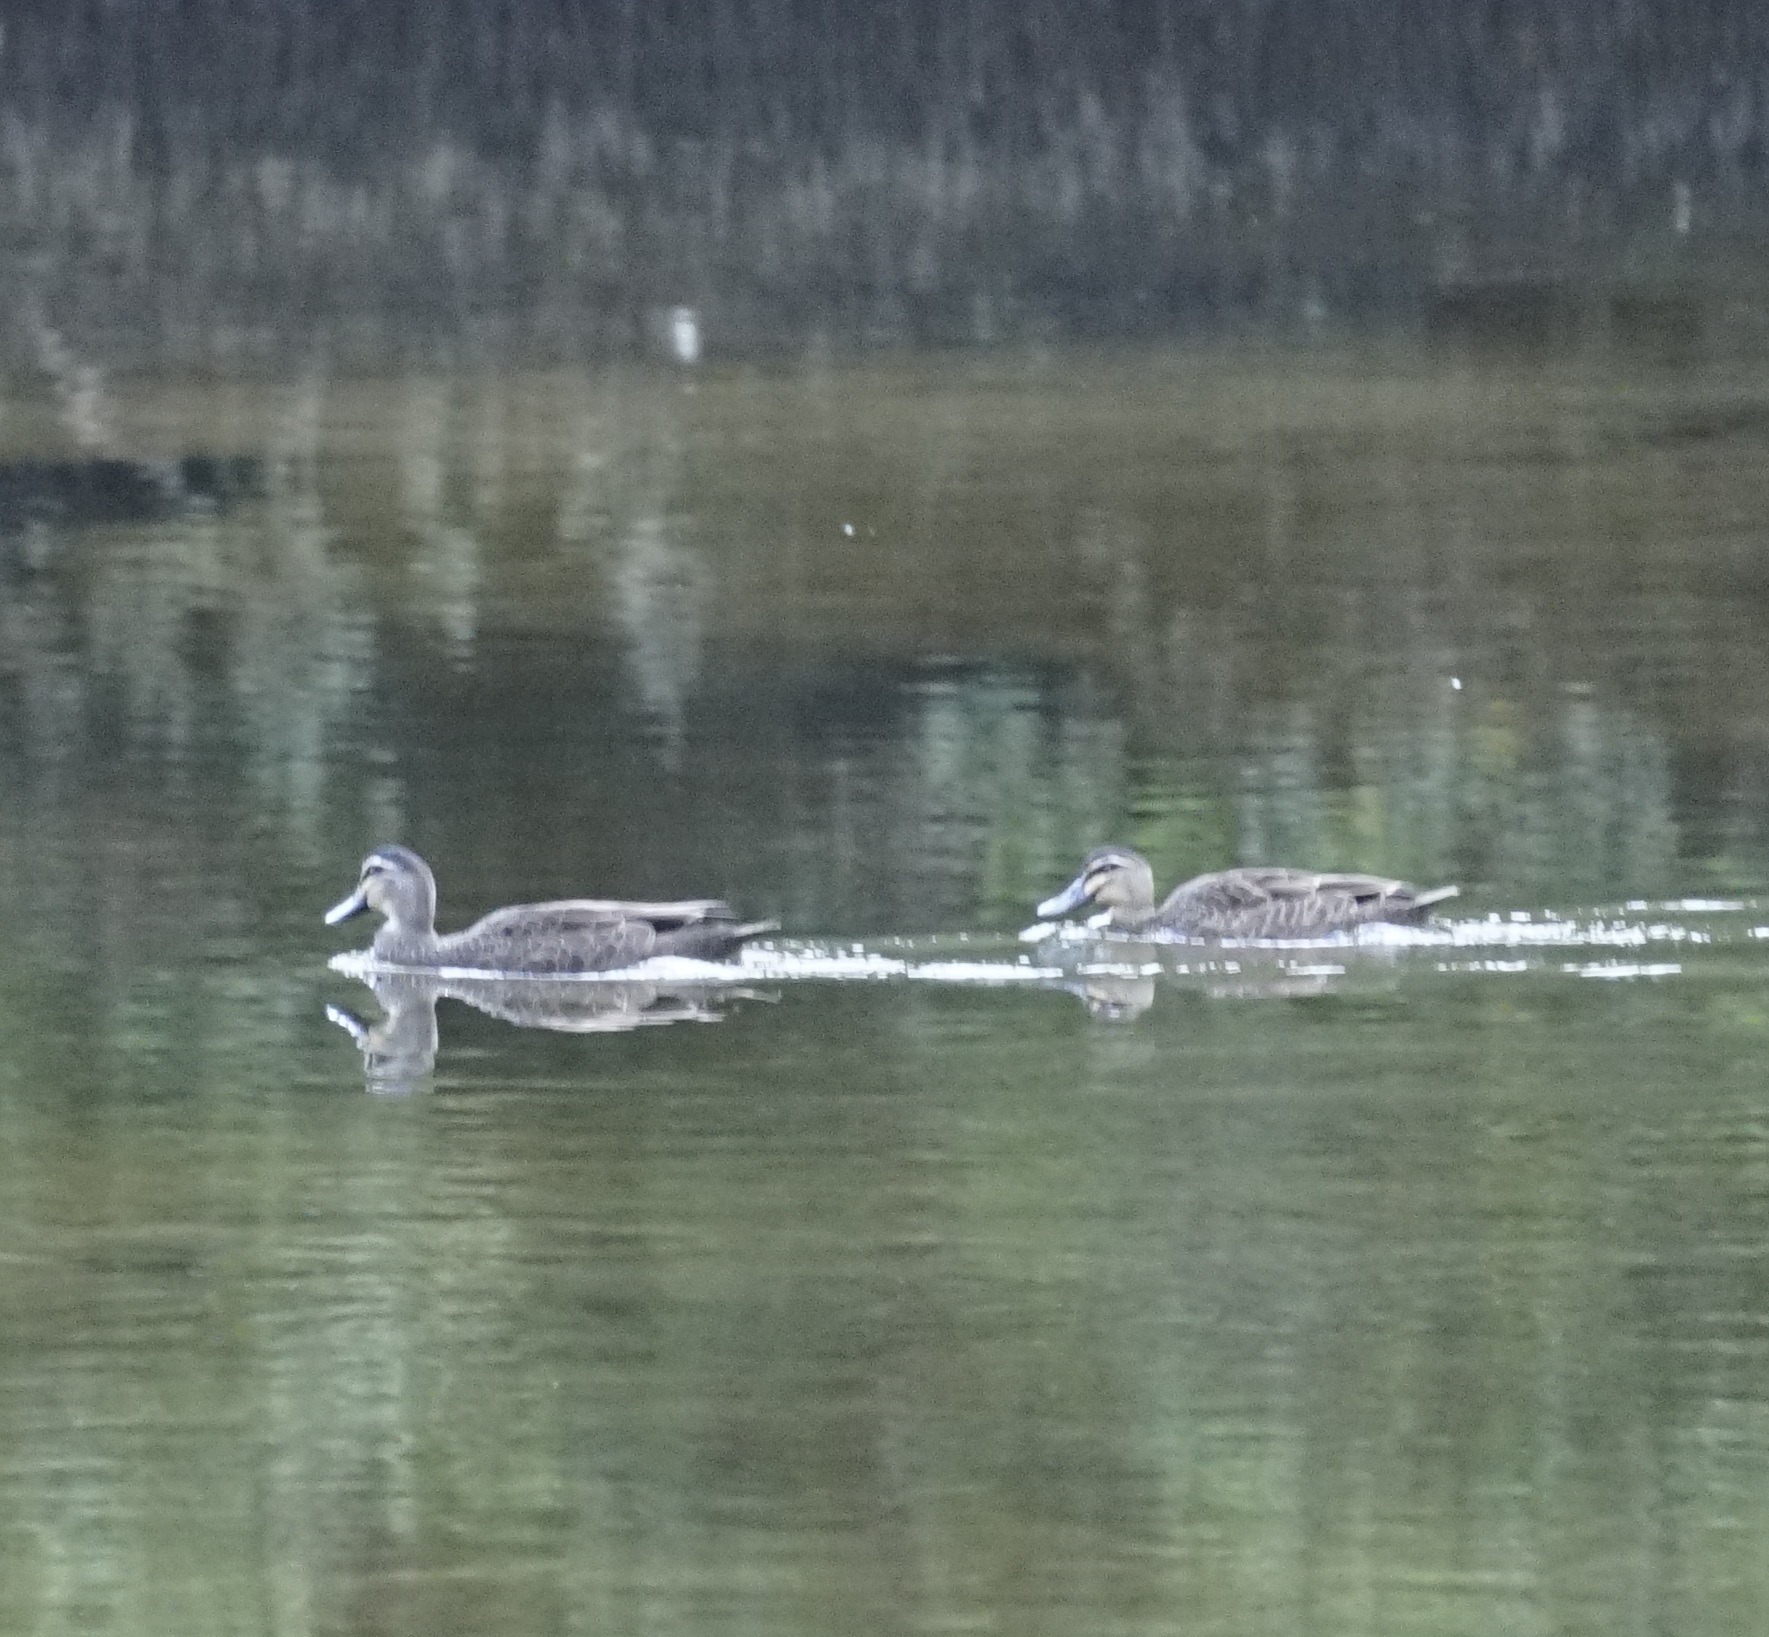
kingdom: Animalia
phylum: Chordata
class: Aves
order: Anseriformes
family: Anatidae
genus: Anas
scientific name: Anas superciliosa
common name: Pacific black duck
